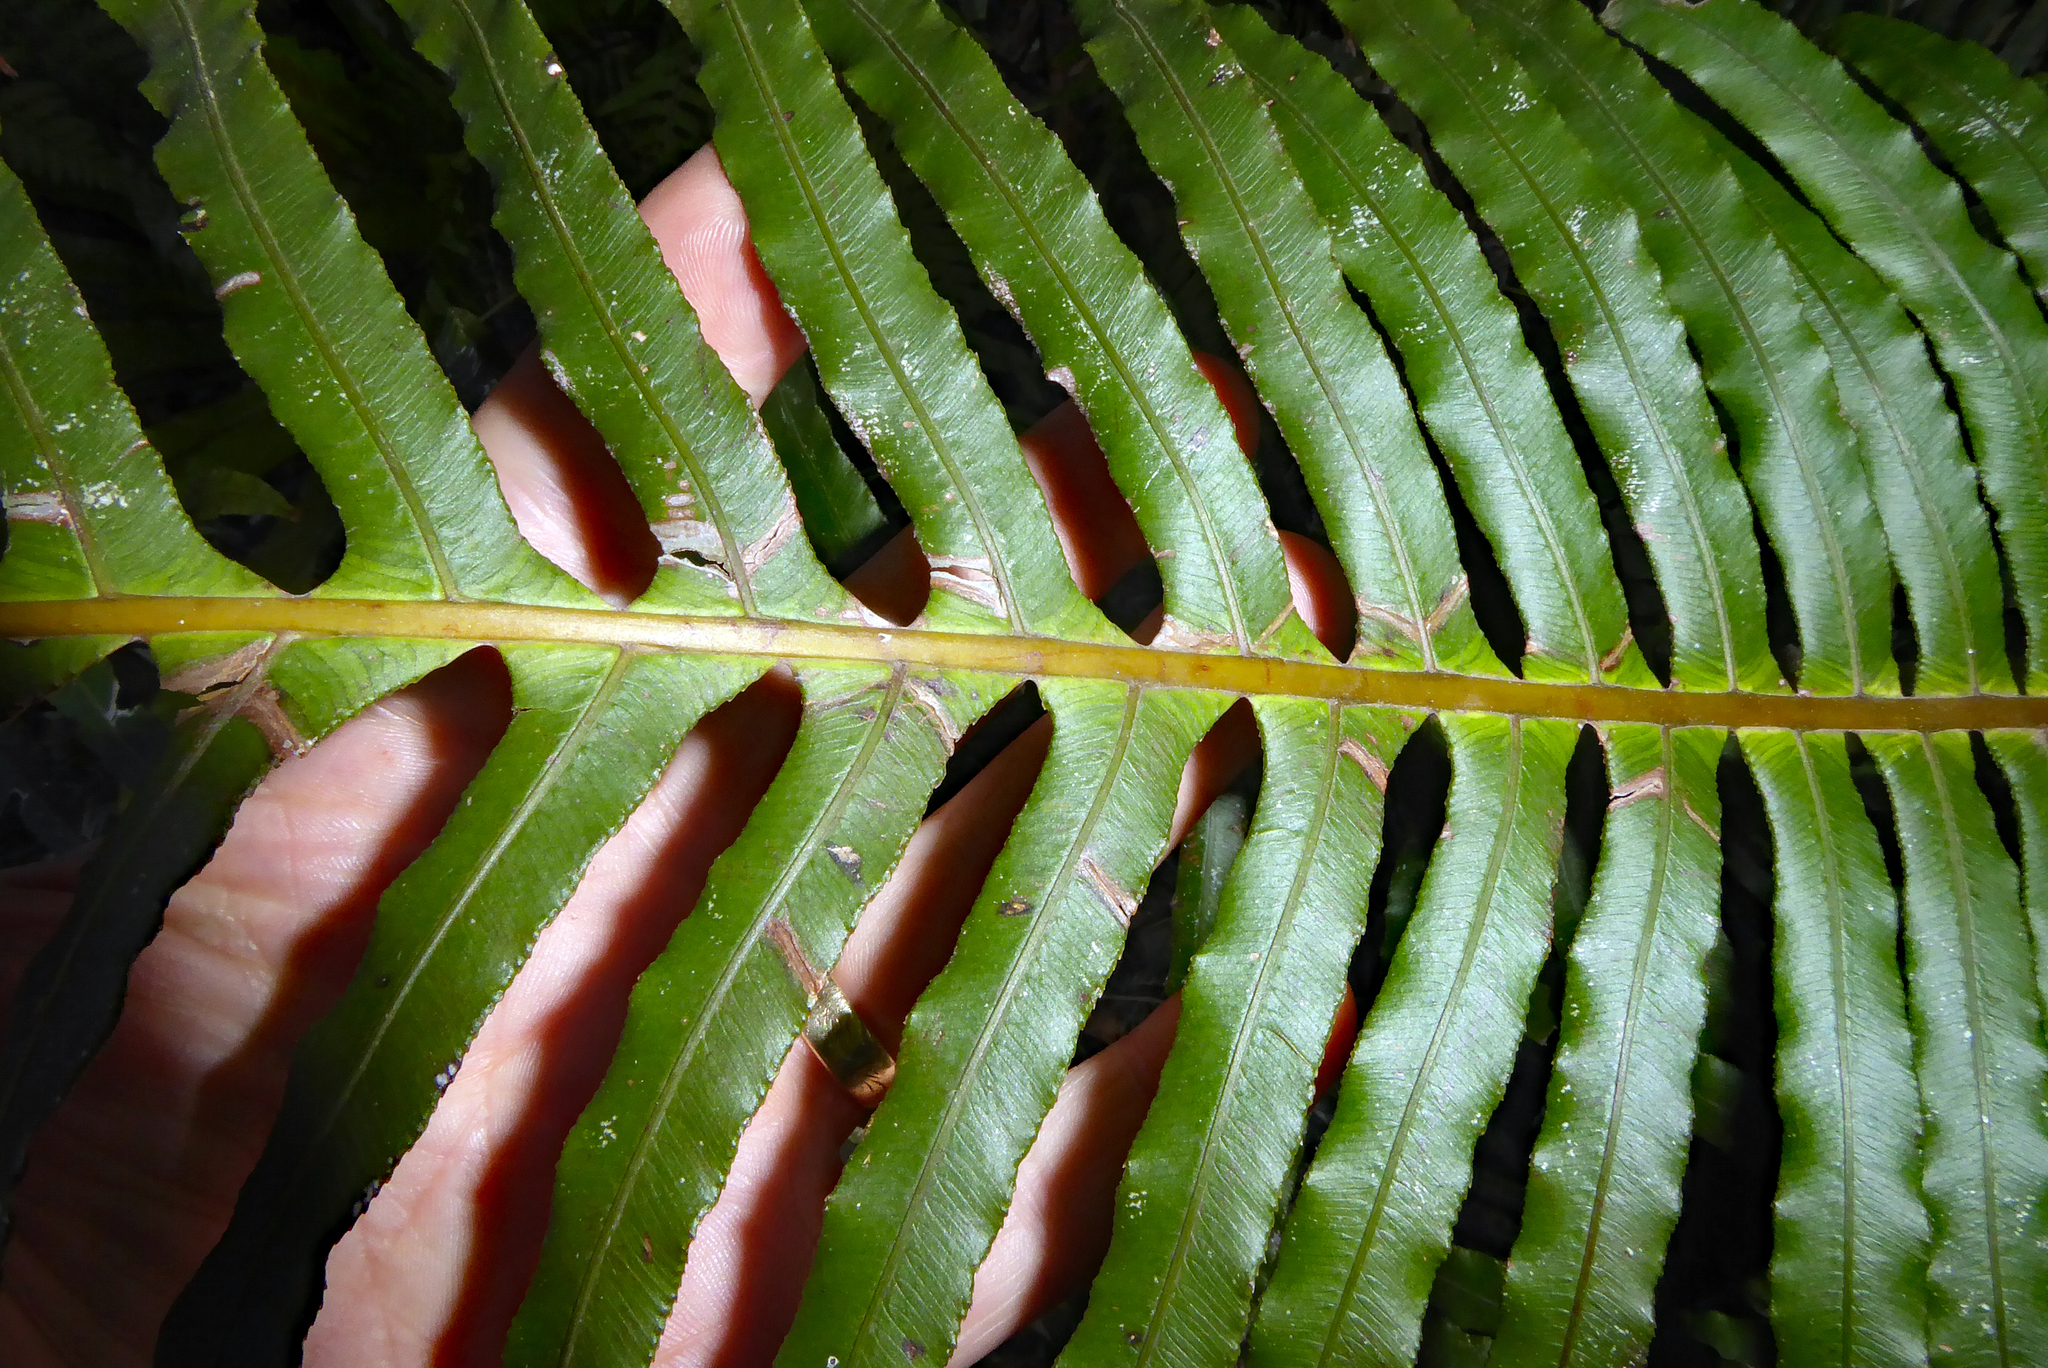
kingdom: Plantae
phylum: Tracheophyta
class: Polypodiopsida
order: Polypodiales
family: Blechnaceae
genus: Oceaniopteris
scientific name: Oceaniopteris cartilaginea
